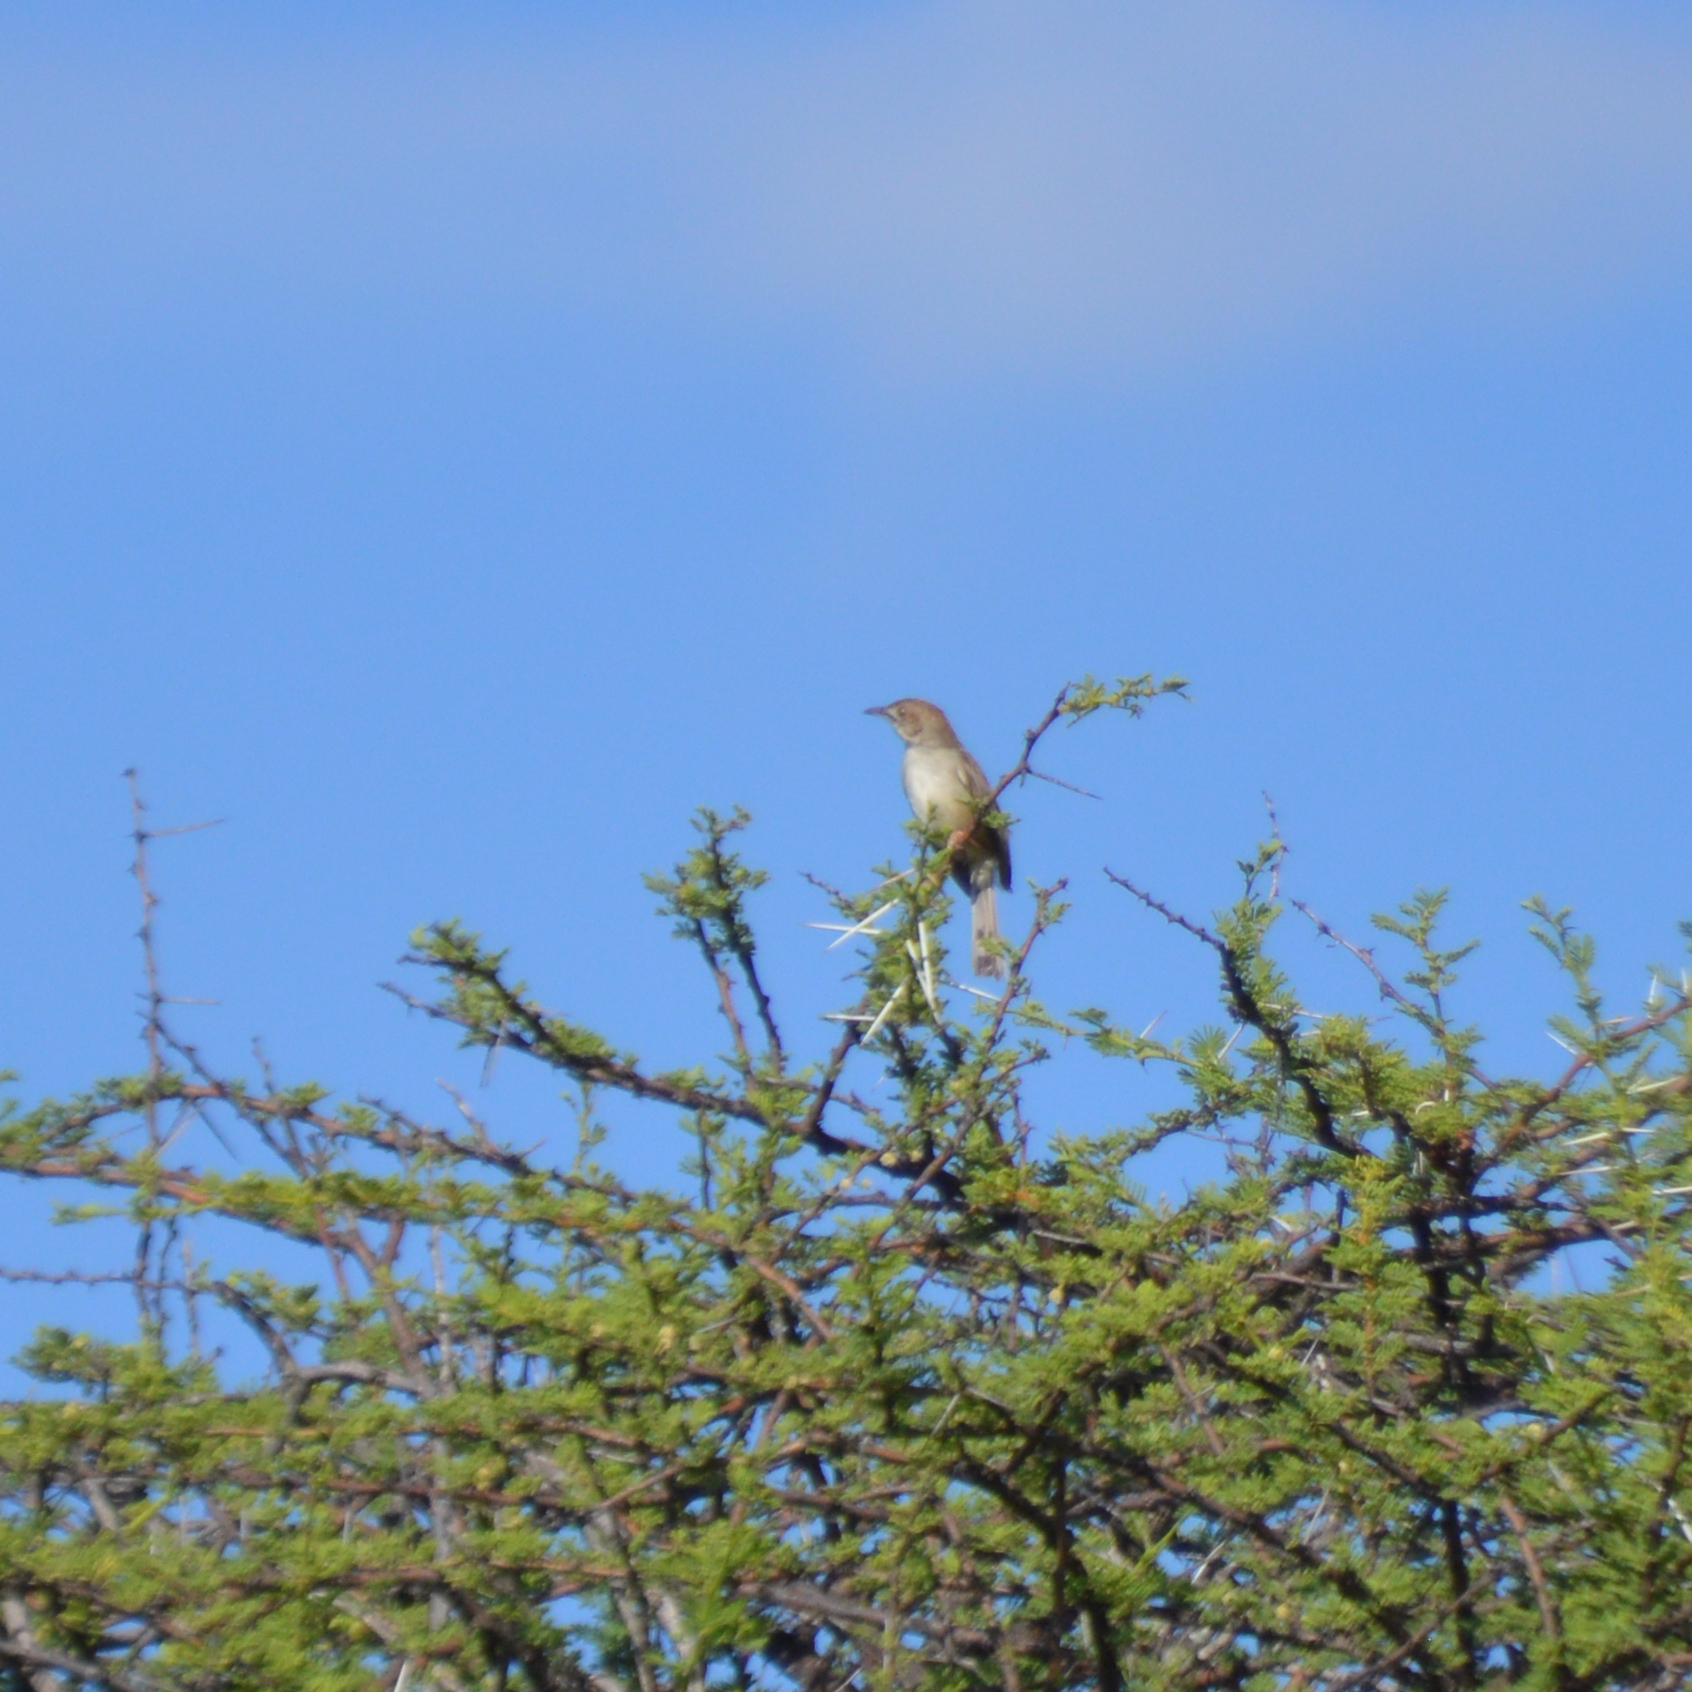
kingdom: Animalia
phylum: Chordata
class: Aves
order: Passeriformes
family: Cisticolidae
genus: Cisticola
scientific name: Cisticola chiniana
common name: Rattling cisticola
